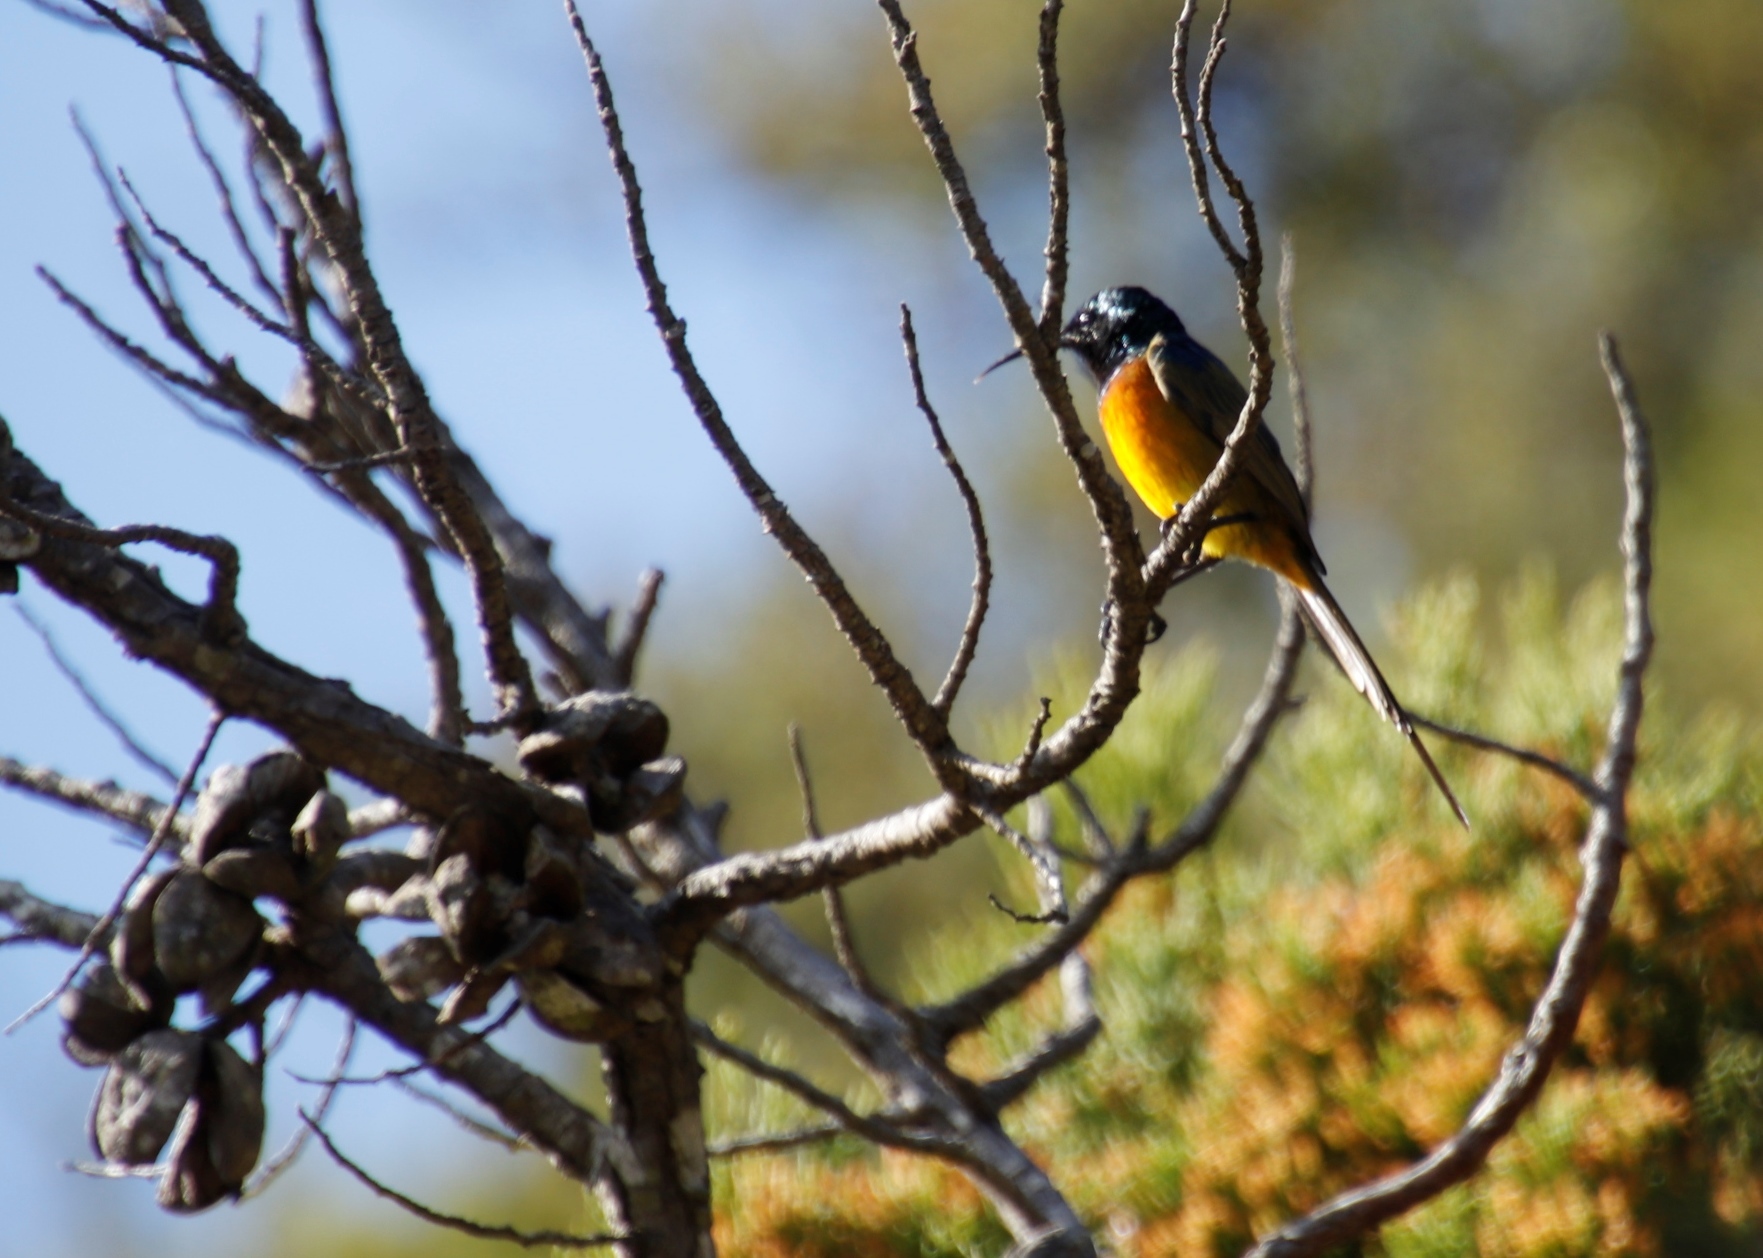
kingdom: Animalia
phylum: Chordata
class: Aves
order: Passeriformes
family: Nectariniidae
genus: Anthobaphes
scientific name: Anthobaphes violacea
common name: Orange-breasted sunbird
